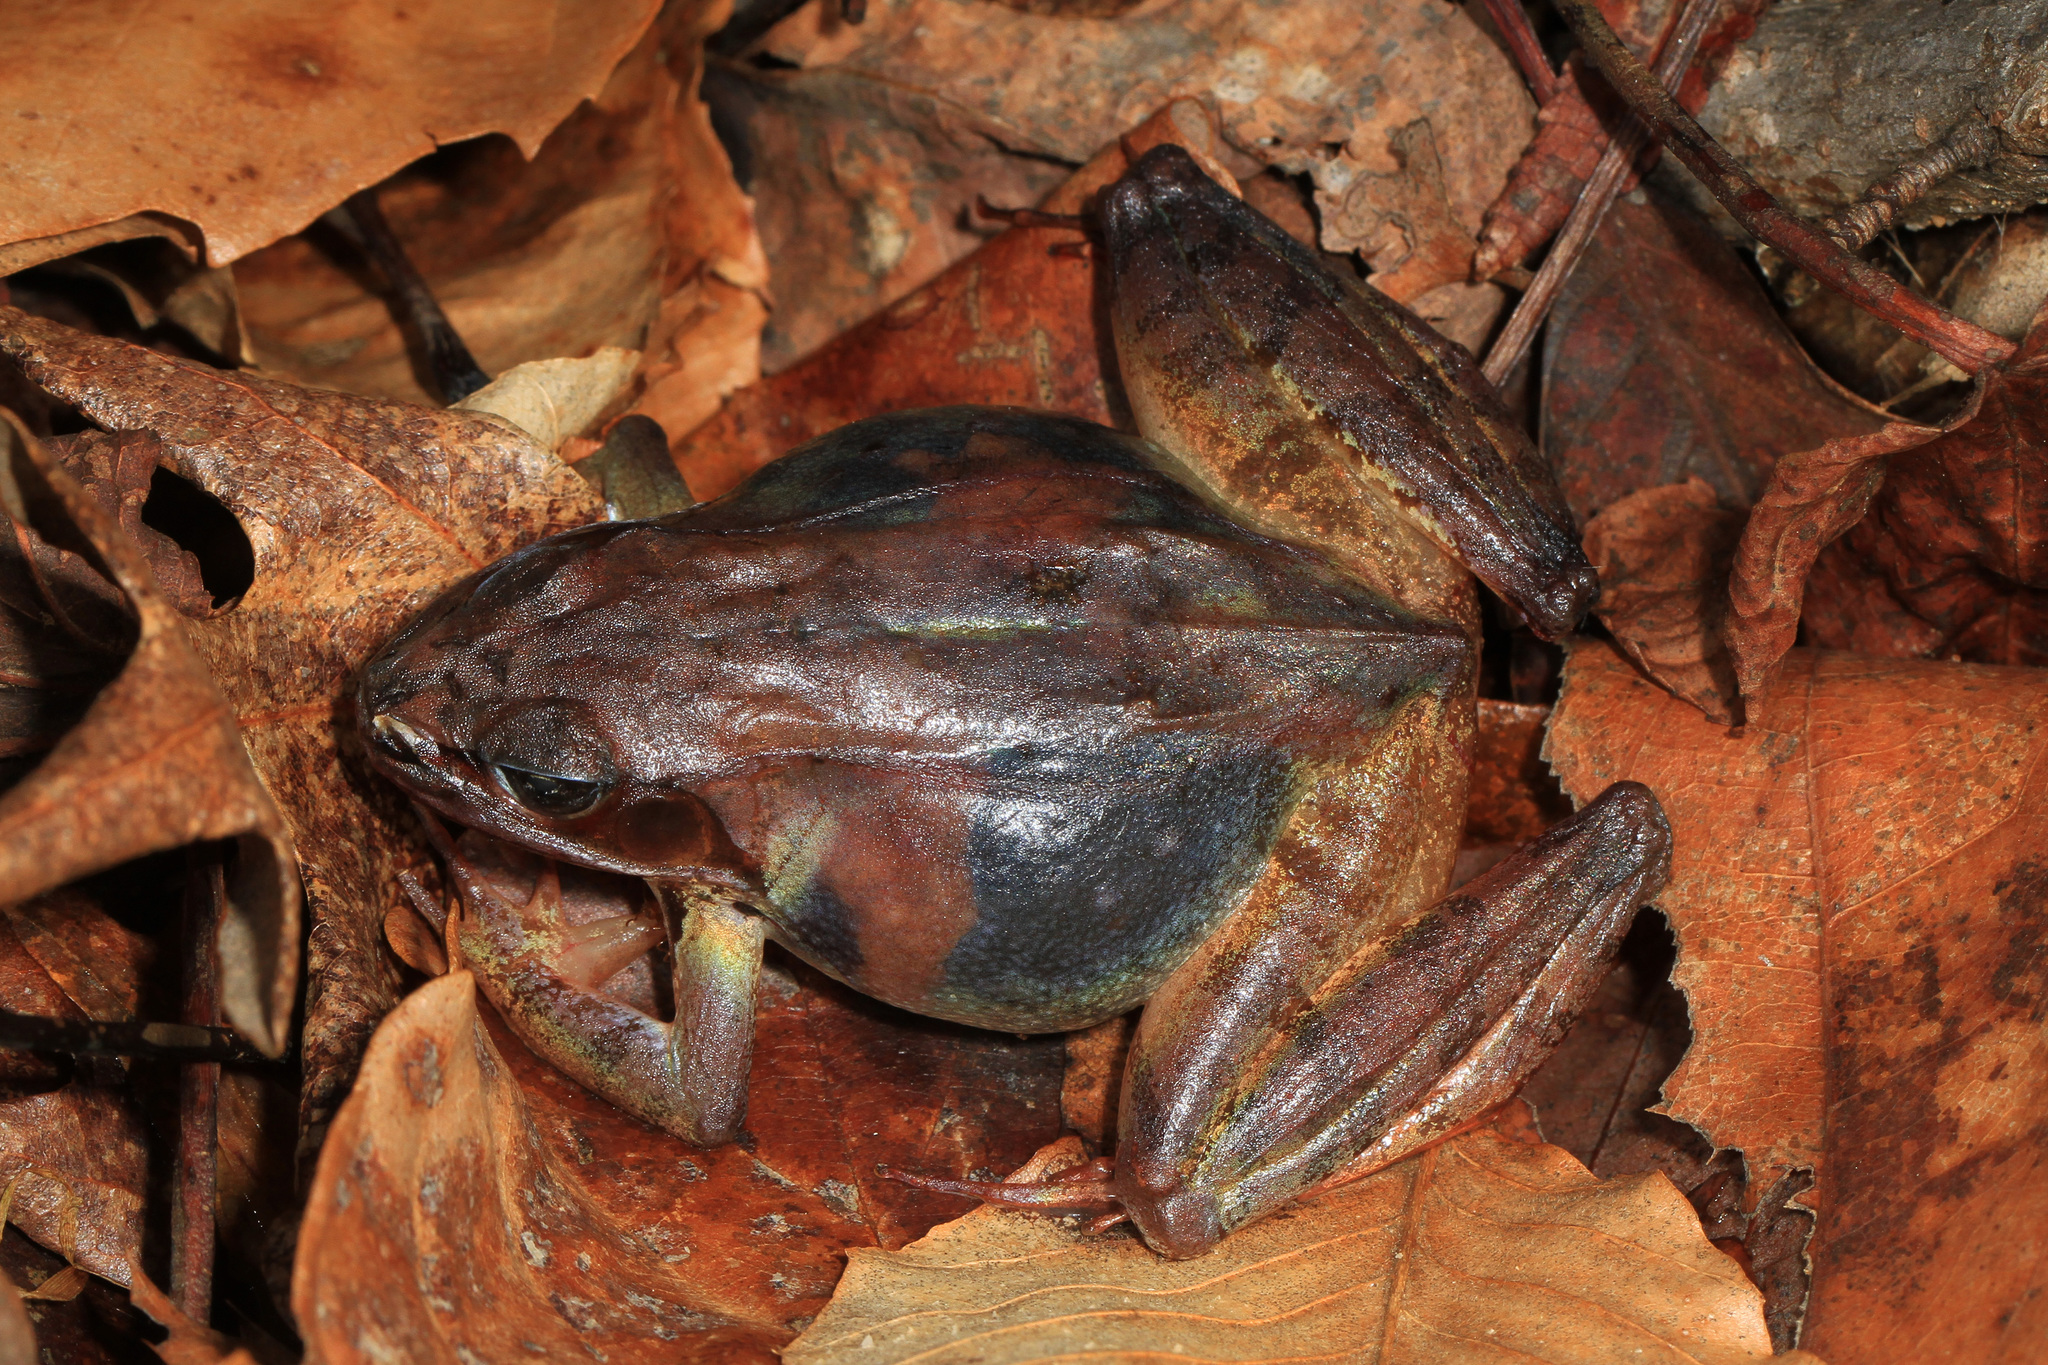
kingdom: Animalia
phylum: Chordata
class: Amphibia
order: Anura
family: Ranidae
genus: Lithobates
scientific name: Lithobates sylvaticus
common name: Wood frog
